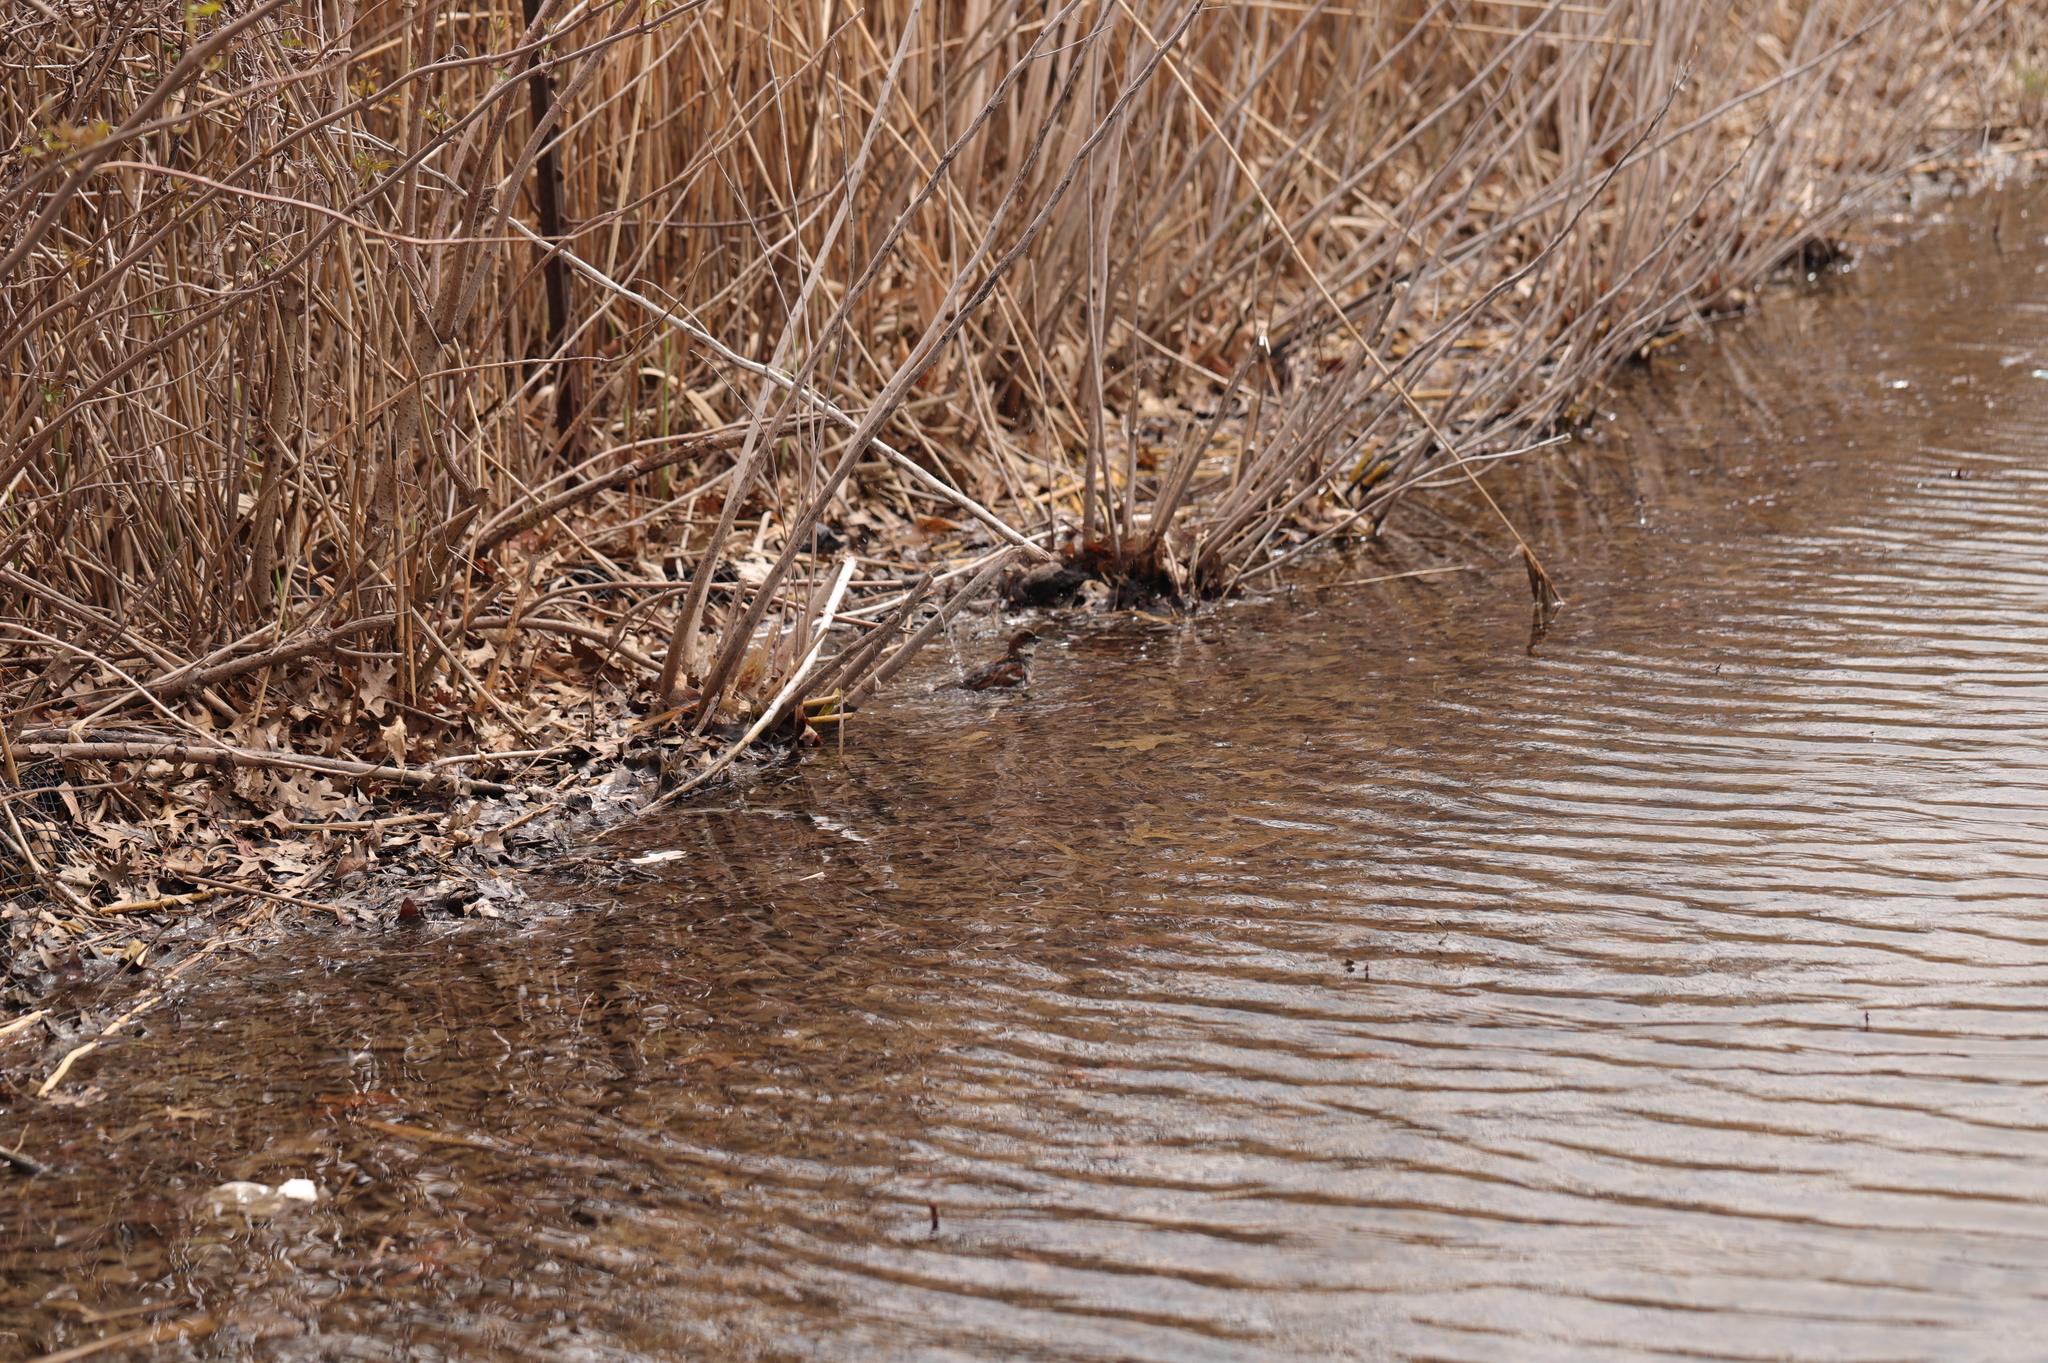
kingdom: Animalia
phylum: Chordata
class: Aves
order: Passeriformes
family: Passeridae
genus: Passer
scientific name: Passer domesticus
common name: House sparrow
